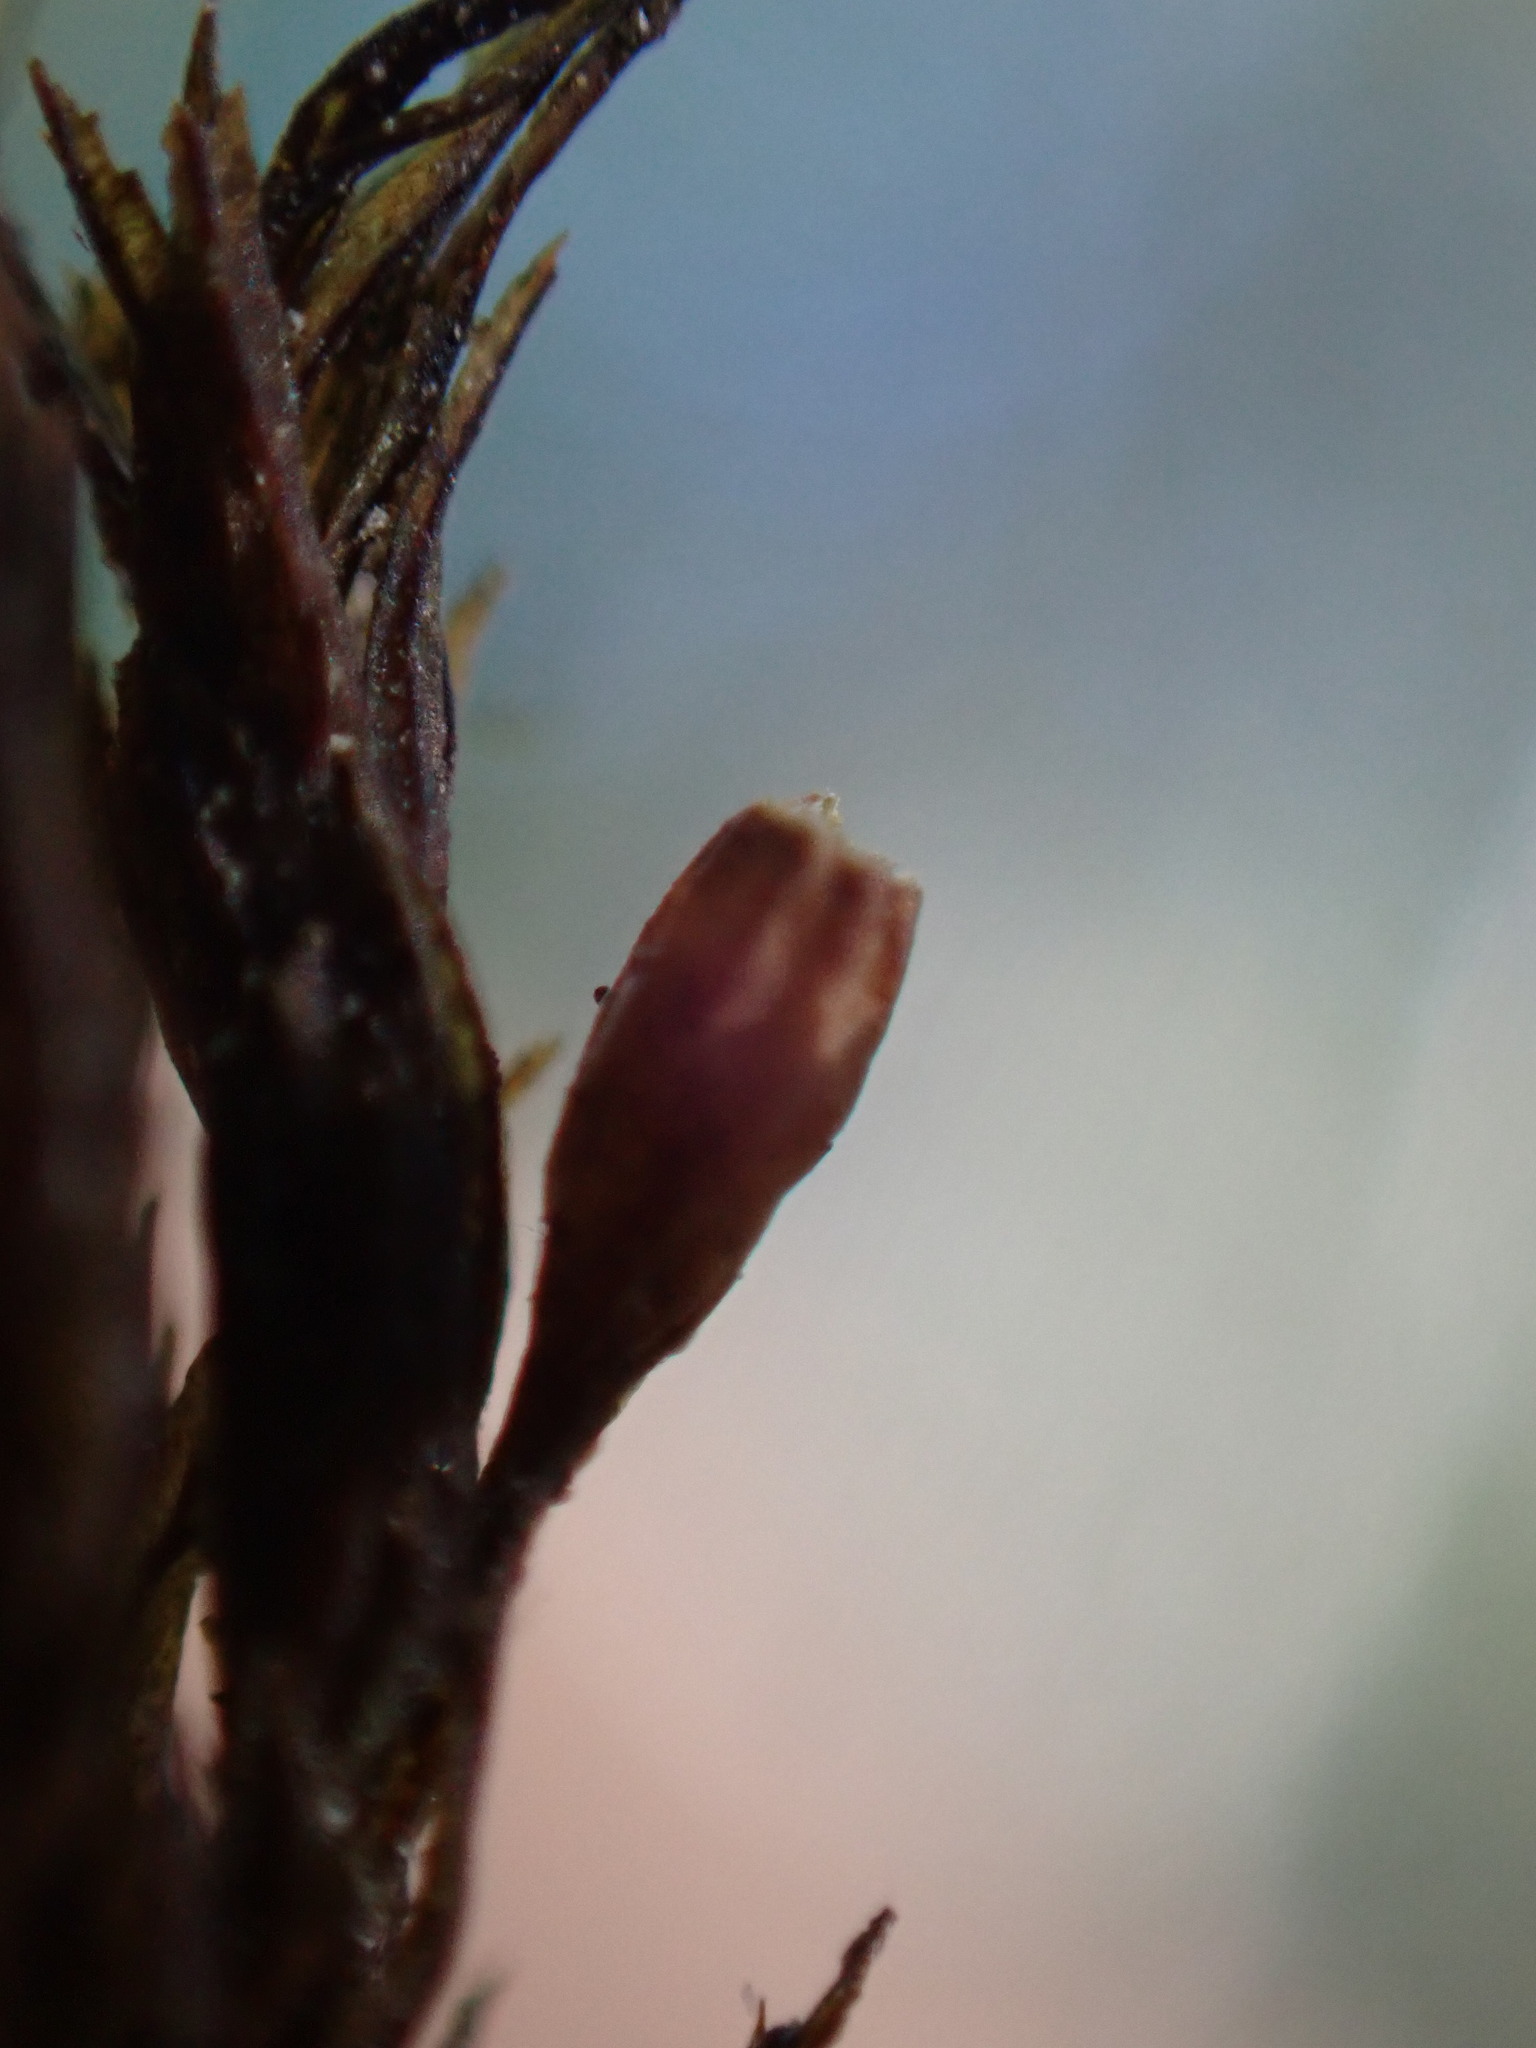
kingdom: Plantae
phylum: Bryophyta
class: Bryopsida
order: Orthotrichales
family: Orthotrichaceae
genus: Pulvigera
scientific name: Pulvigera papillosa
